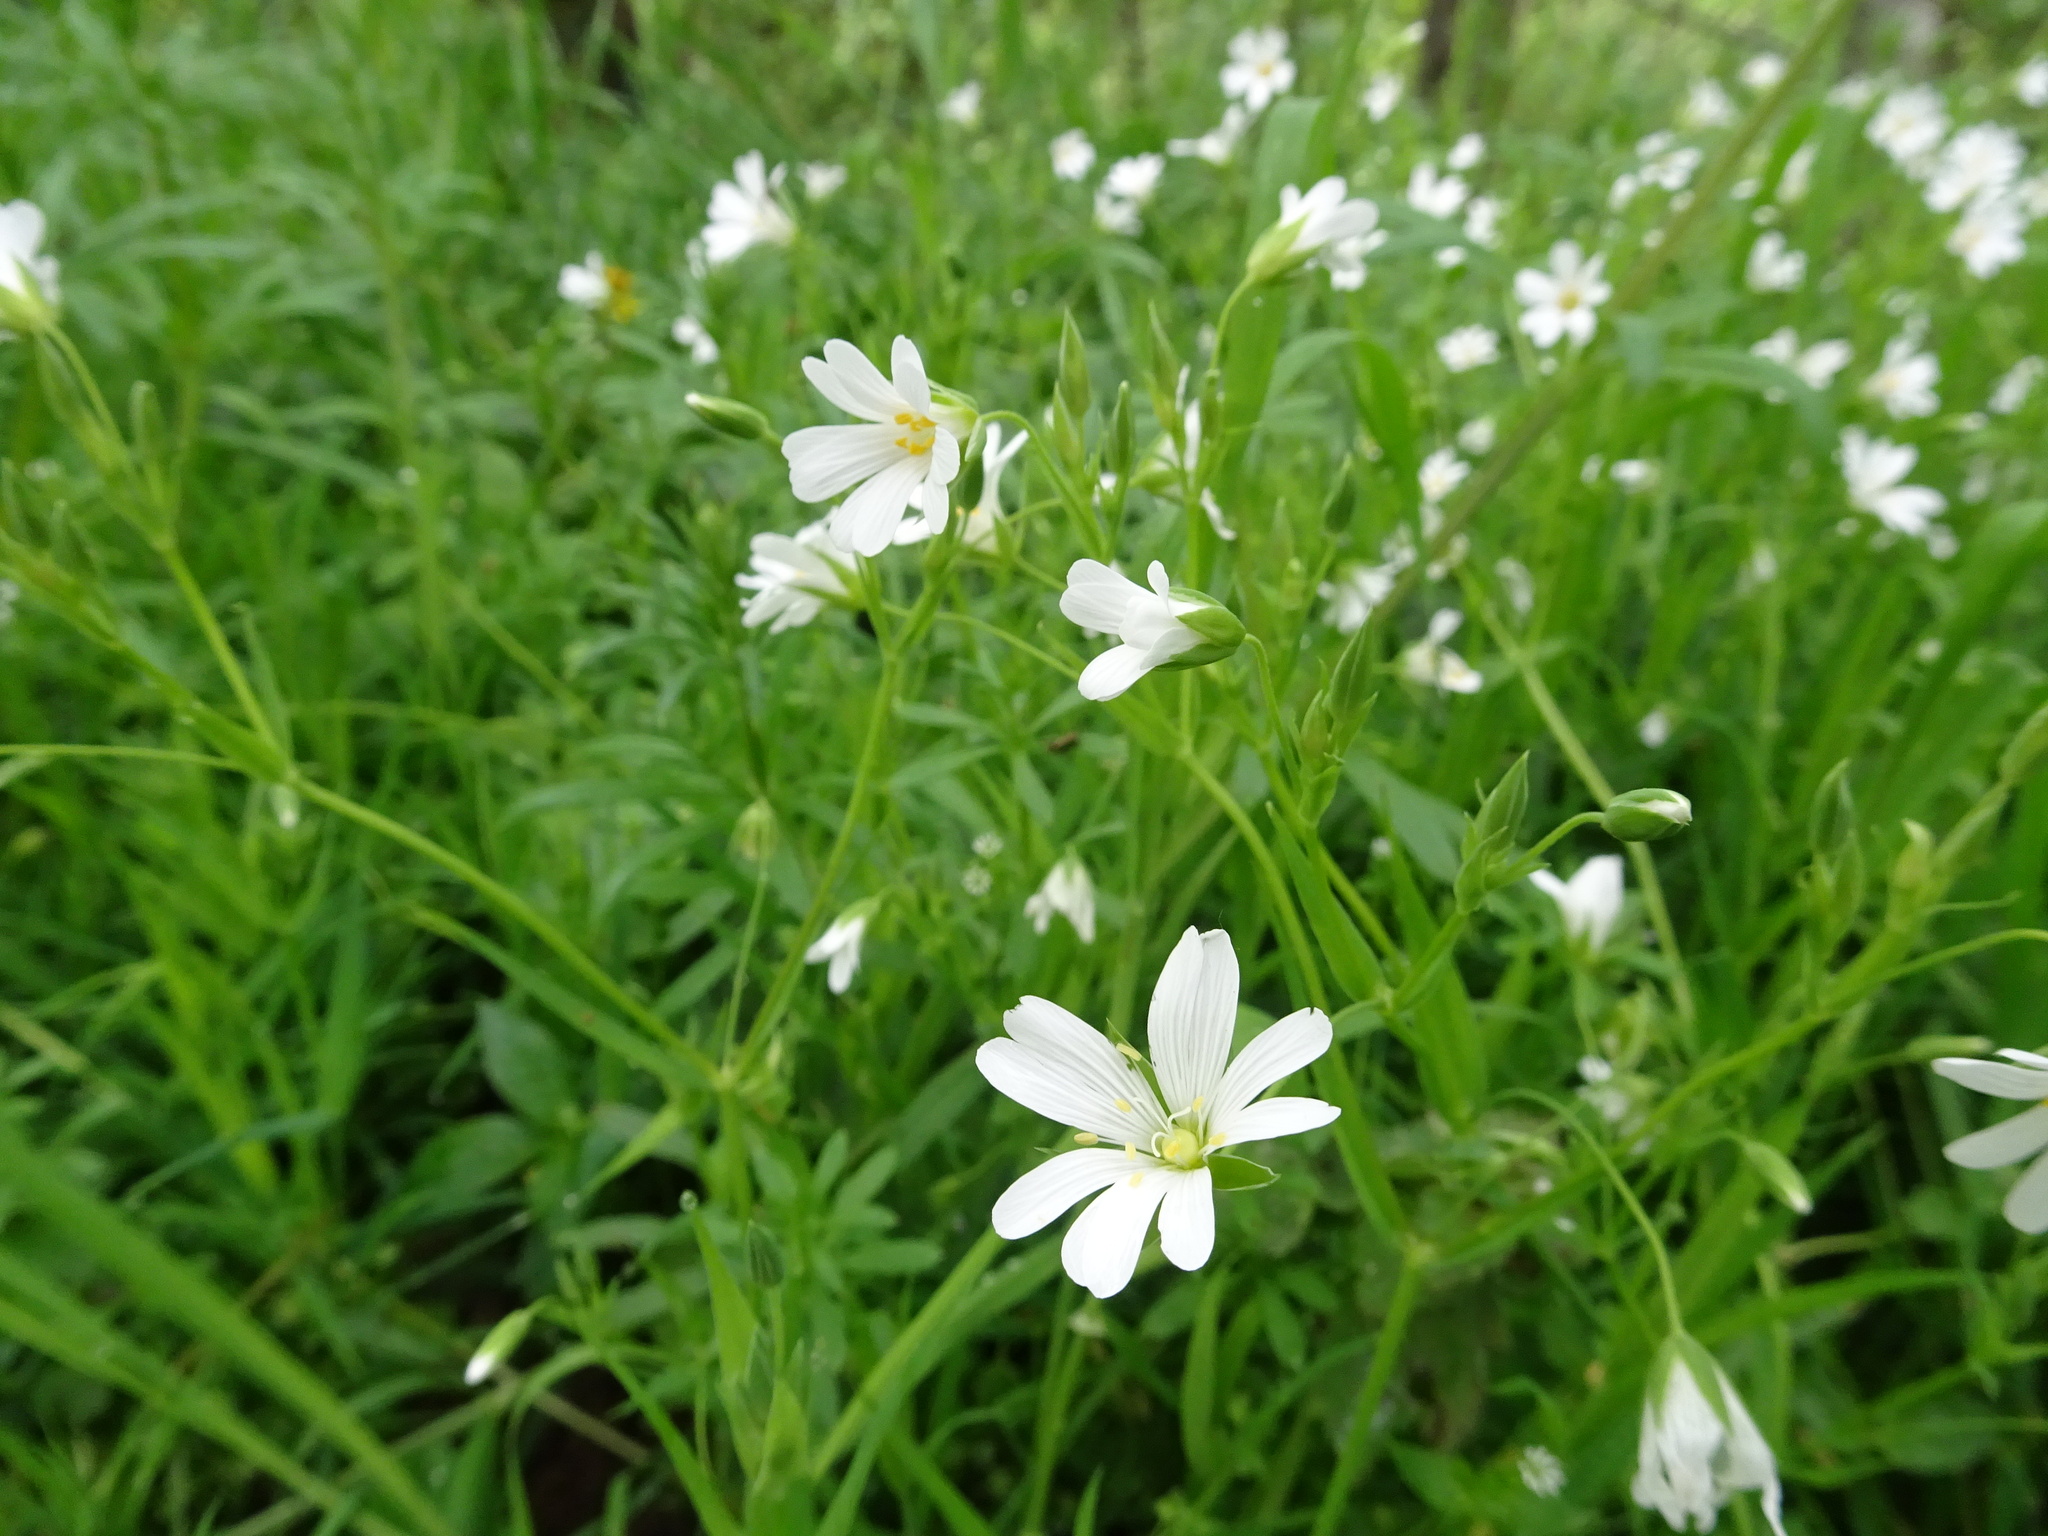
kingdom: Plantae
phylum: Tracheophyta
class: Magnoliopsida
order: Caryophyllales
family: Caryophyllaceae
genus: Rabelera
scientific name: Rabelera holostea
